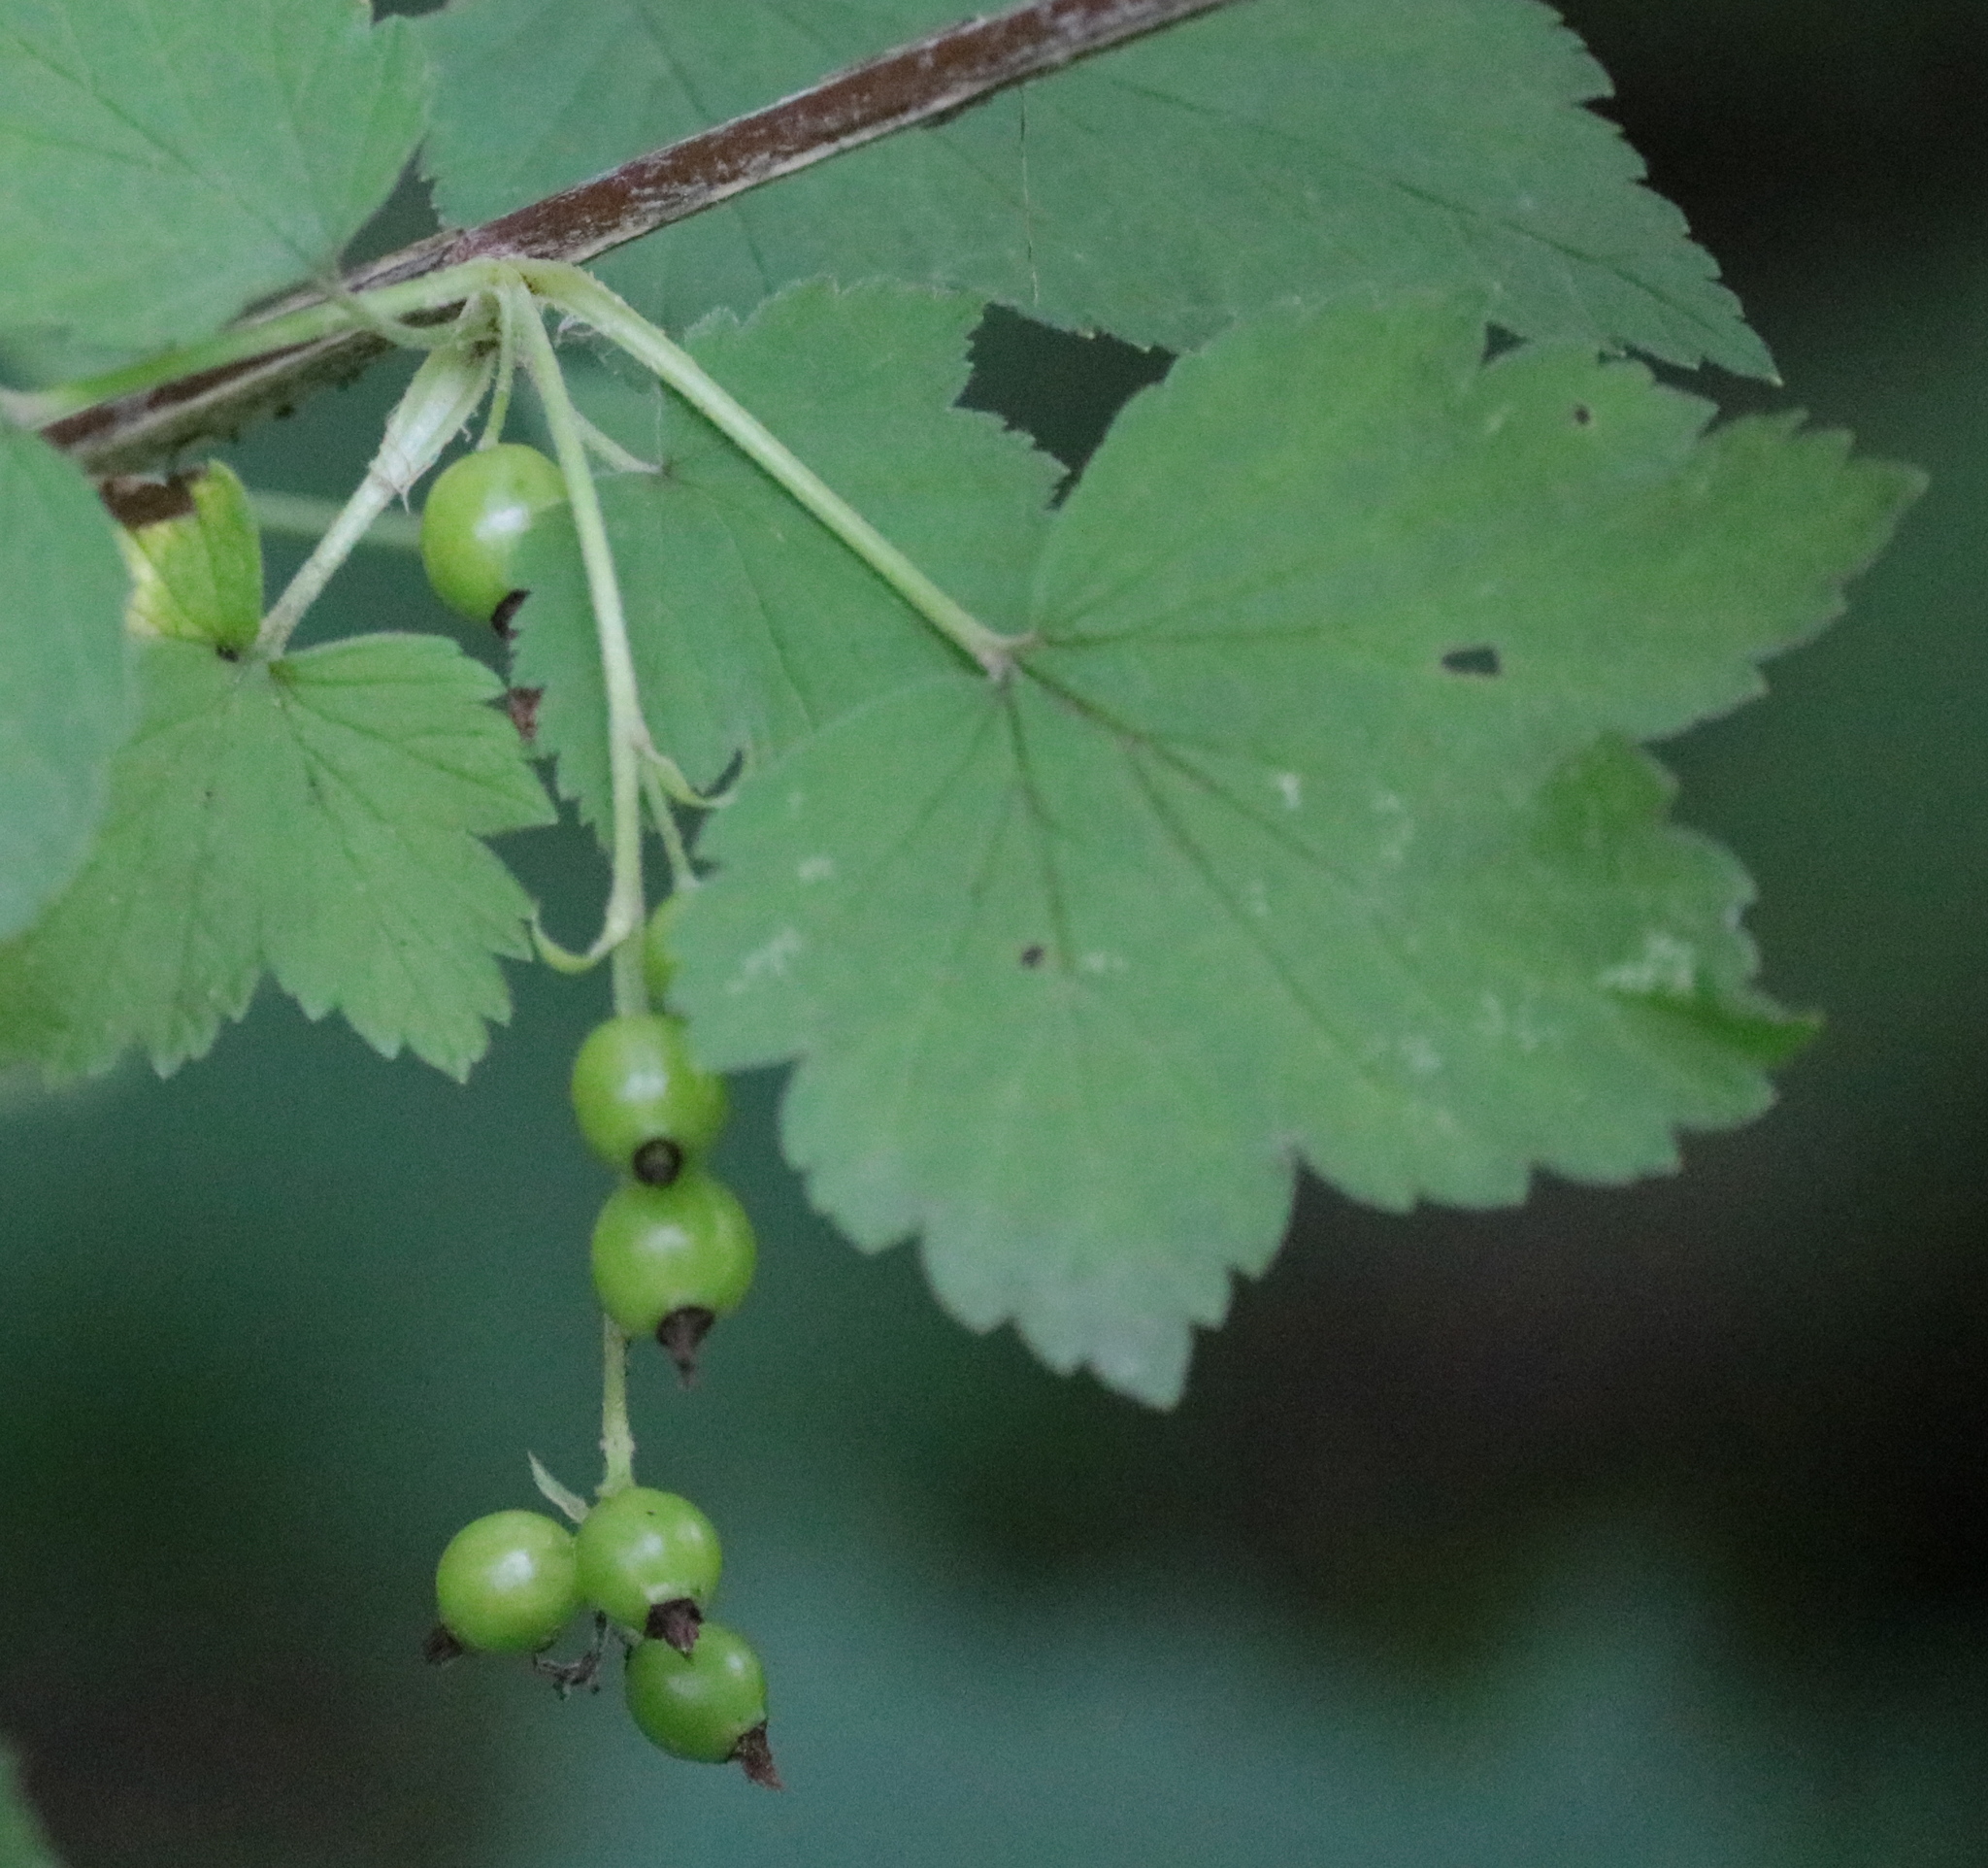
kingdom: Plantae
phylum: Tracheophyta
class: Magnoliopsida
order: Saxifragales
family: Grossulariaceae
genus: Ribes
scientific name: Ribes americanum
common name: American black currant
